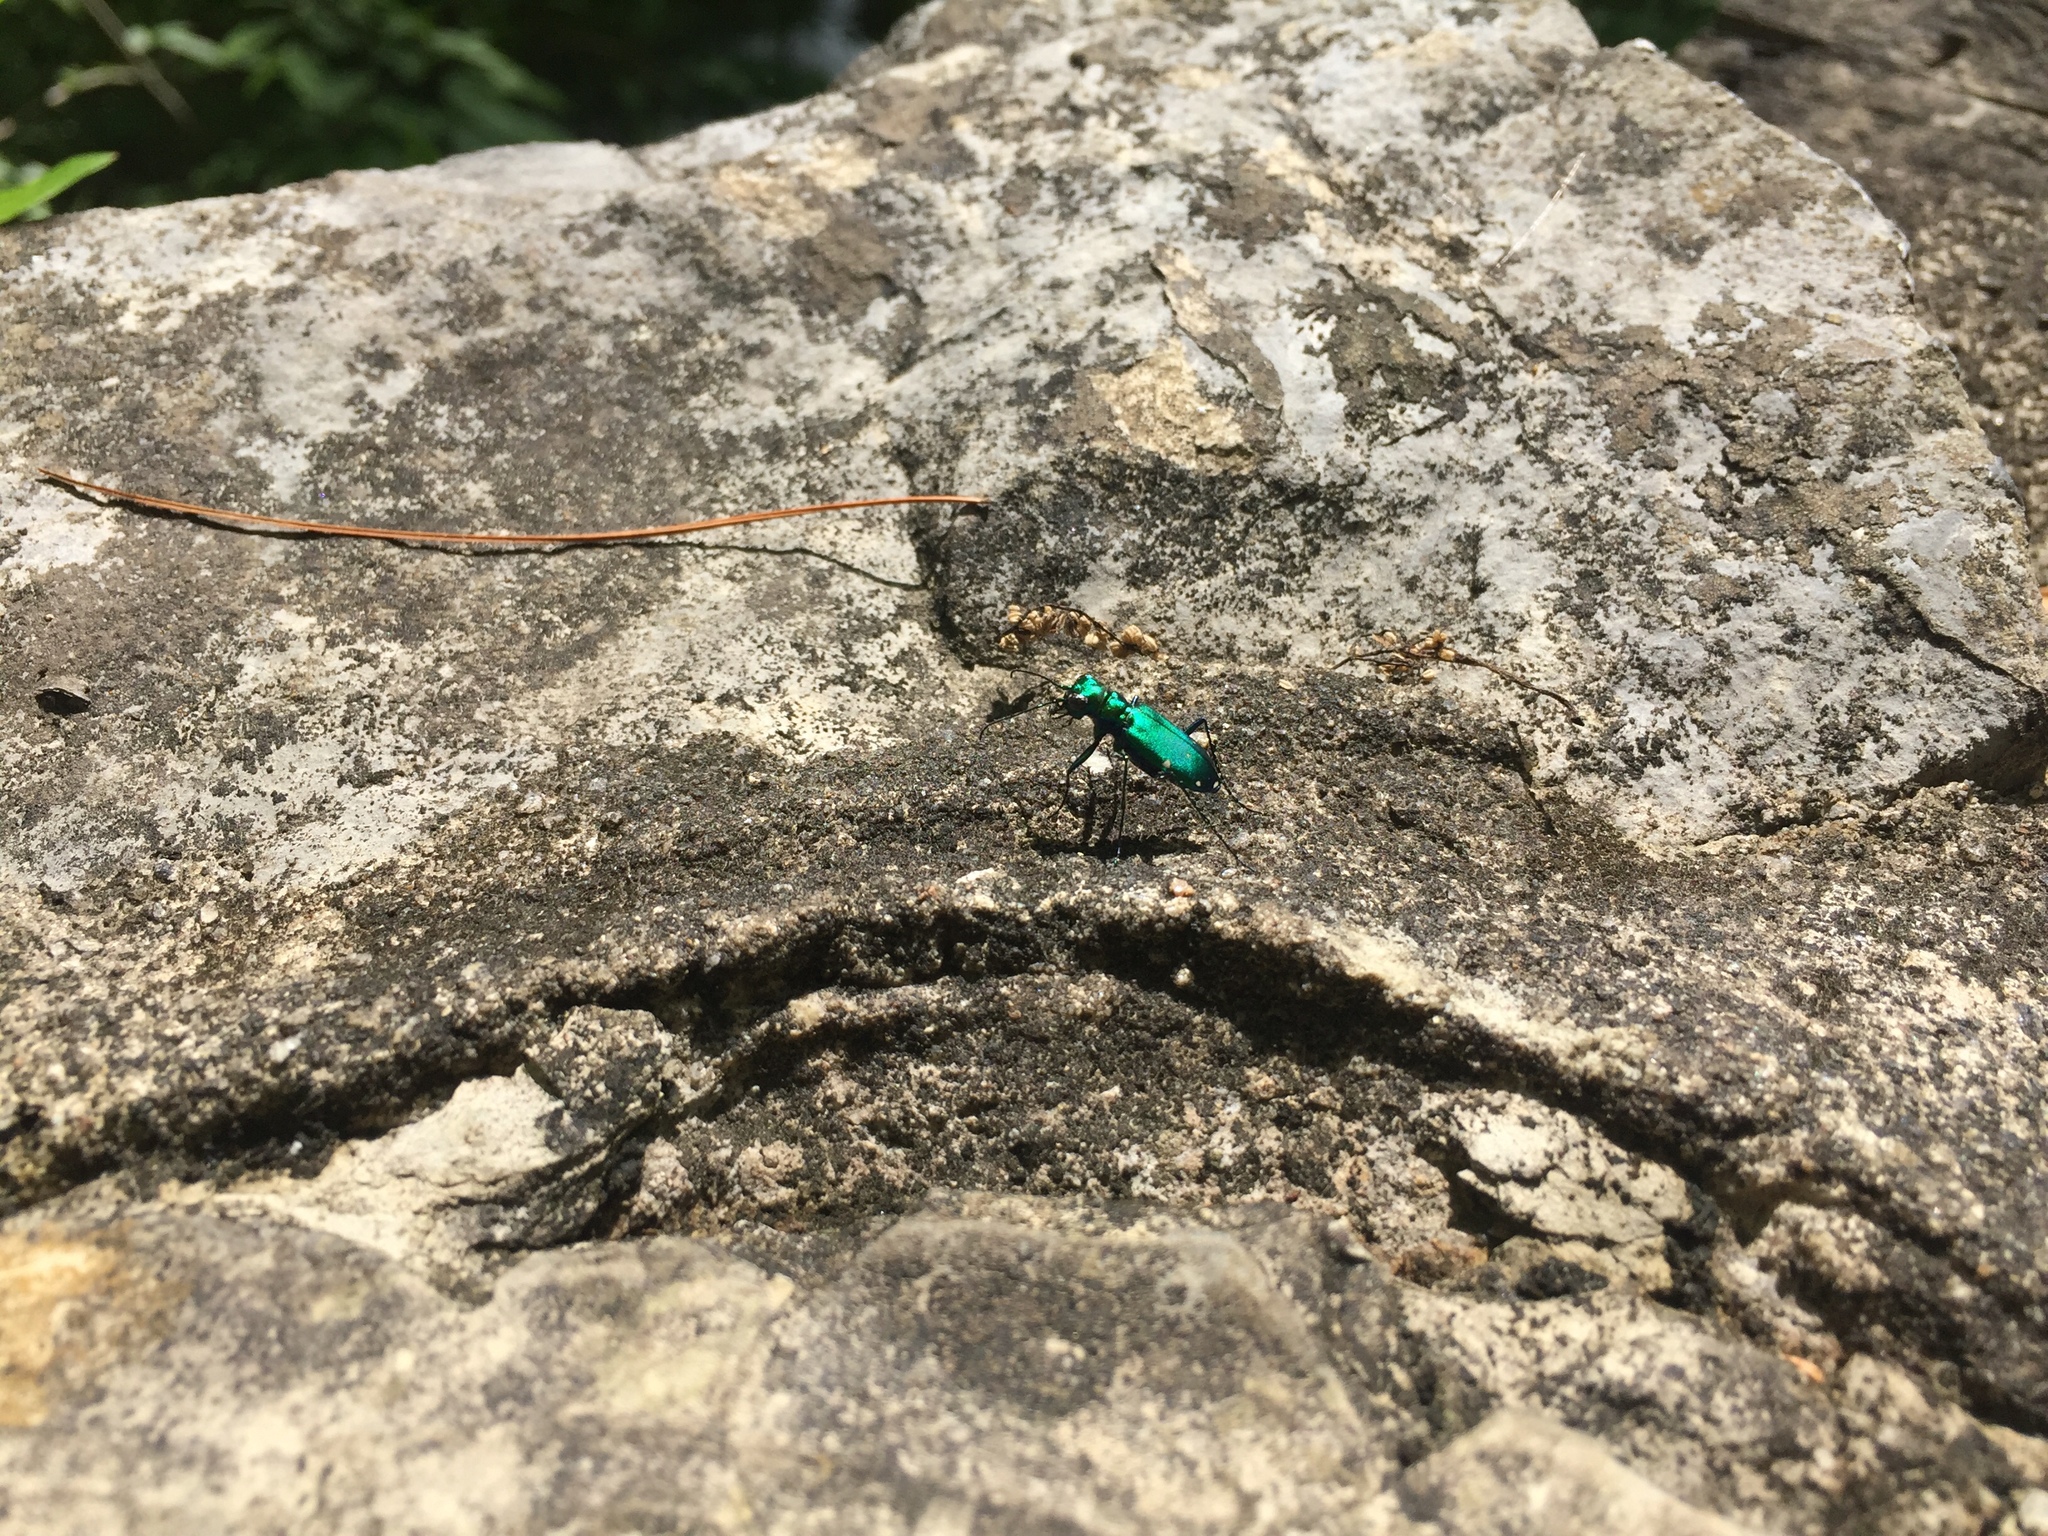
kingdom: Animalia
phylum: Arthropoda
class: Insecta
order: Coleoptera
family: Carabidae
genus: Cicindela
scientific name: Cicindela sexguttata
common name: Six-spotted tiger beetle
